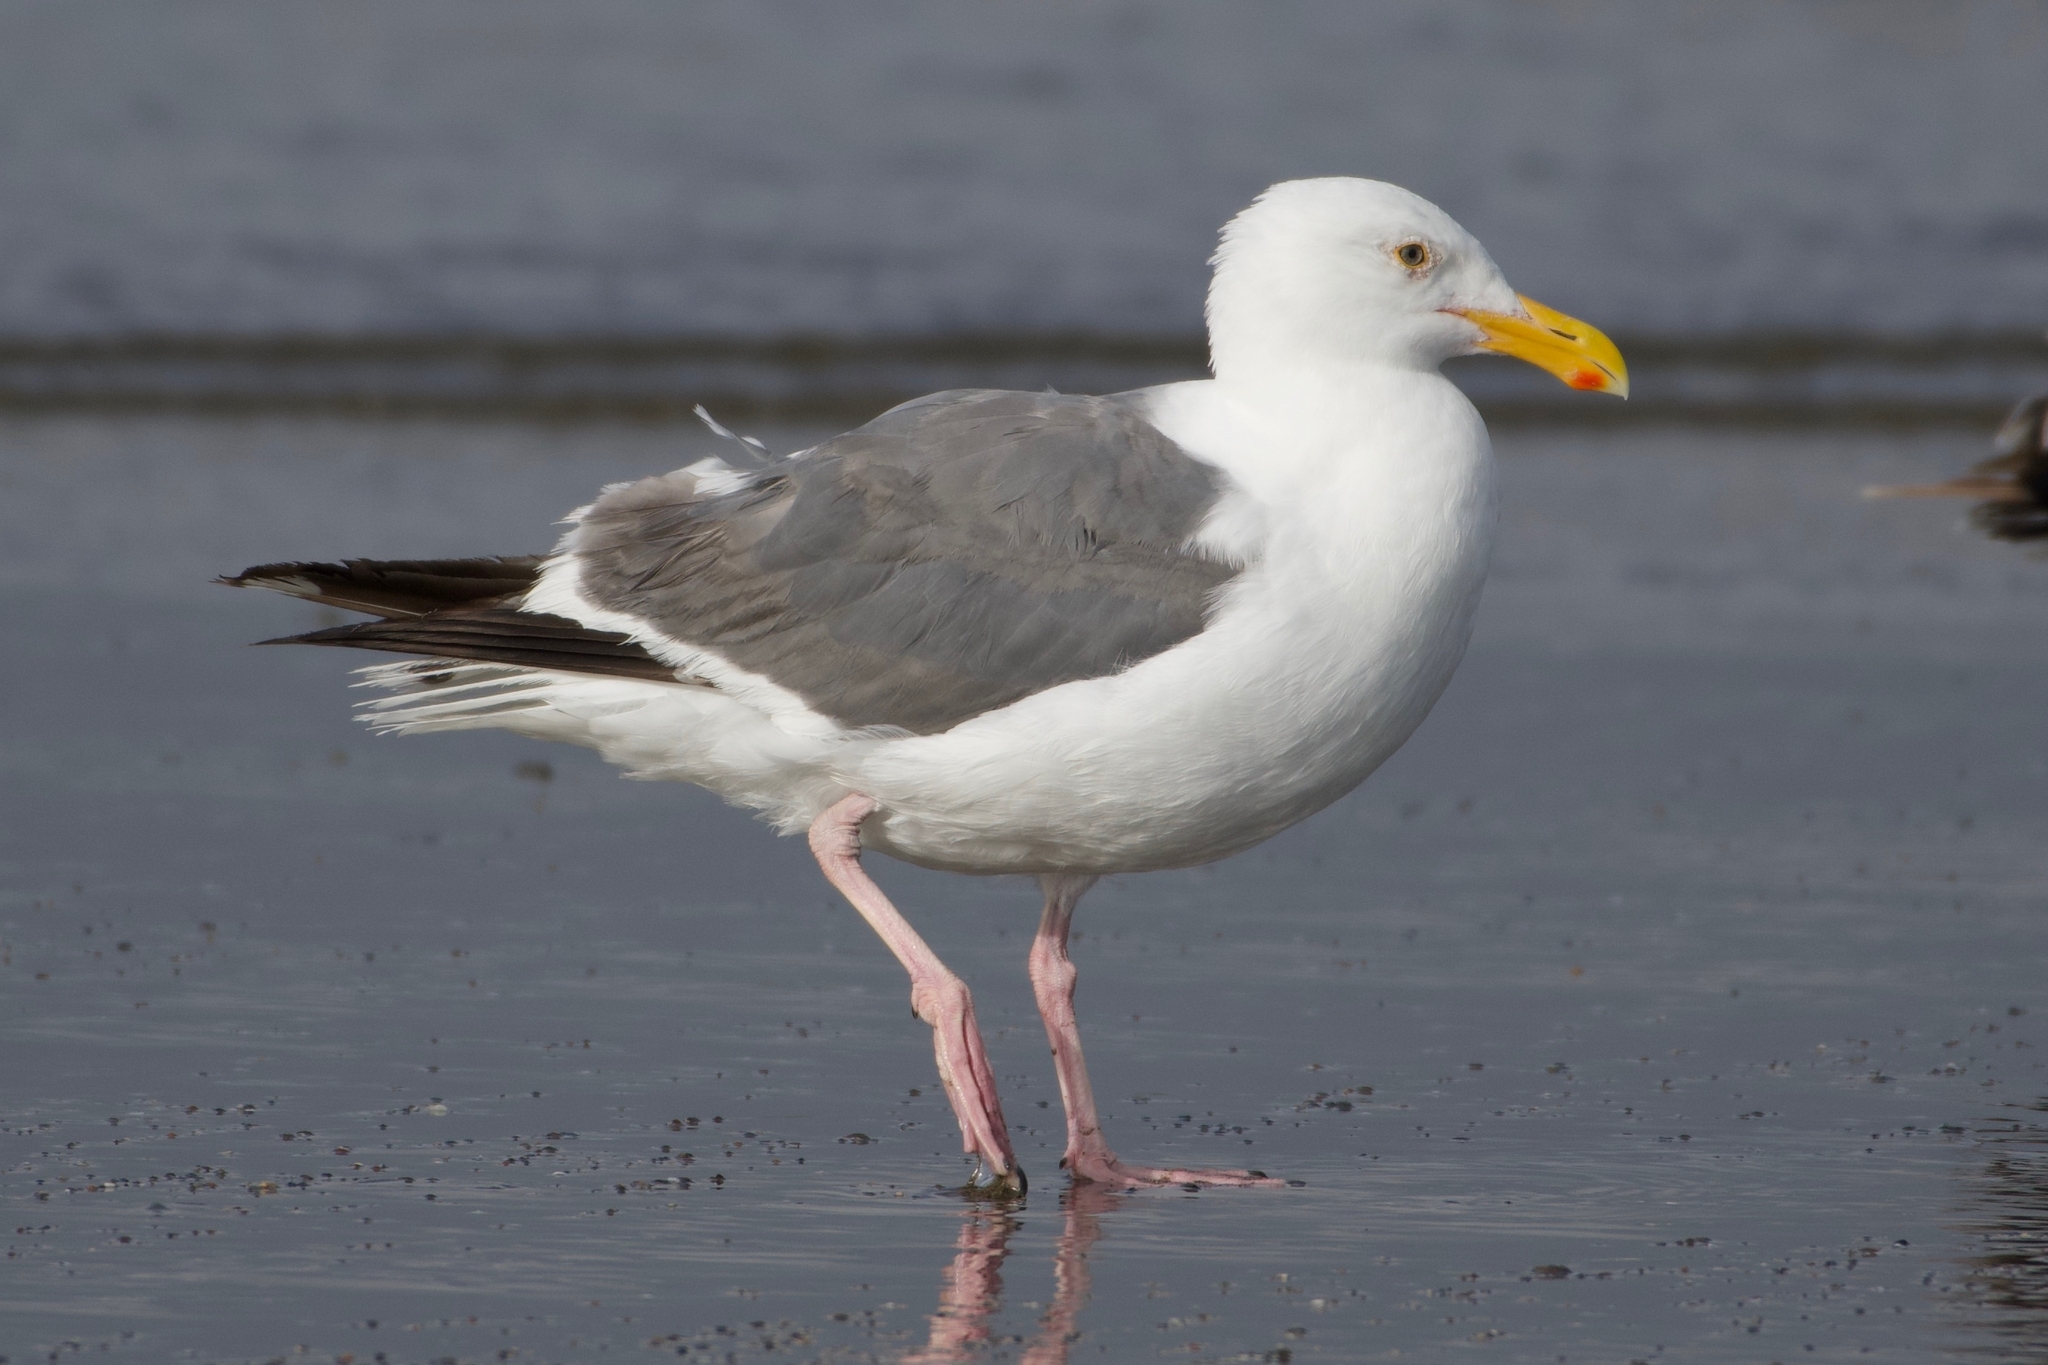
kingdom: Animalia
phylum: Chordata
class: Aves
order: Charadriiformes
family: Laridae
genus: Larus
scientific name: Larus occidentalis
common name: Western gull
